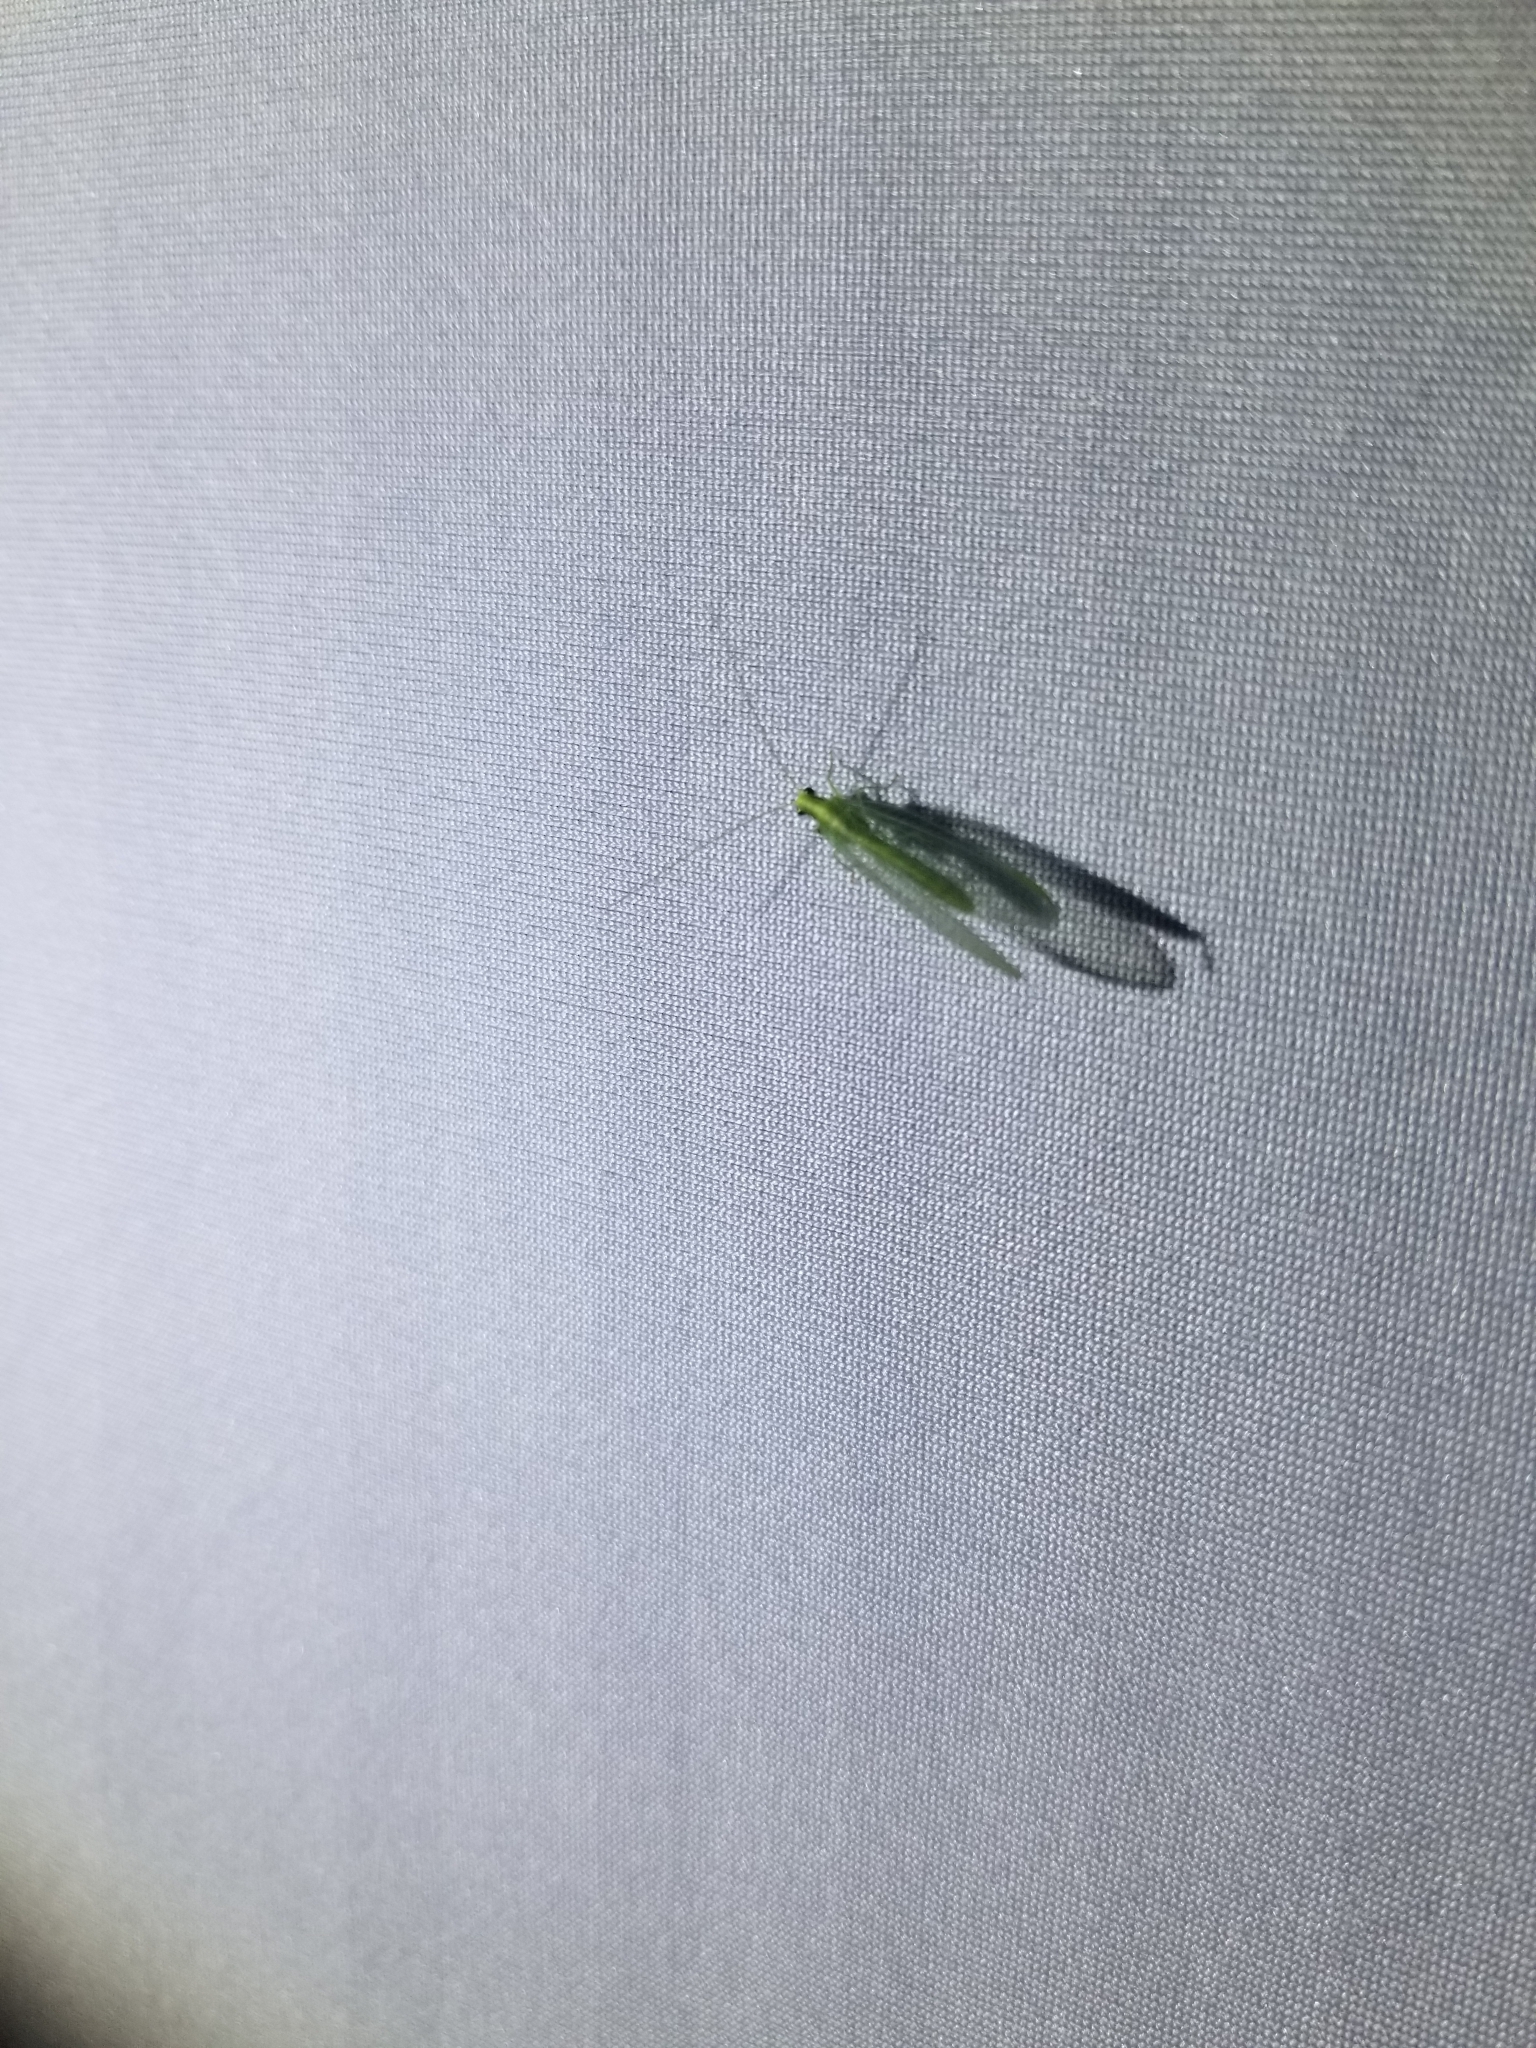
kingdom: Animalia
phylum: Arthropoda
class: Insecta
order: Neuroptera
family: Chrysopidae
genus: Chrysoperla
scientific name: Chrysoperla
